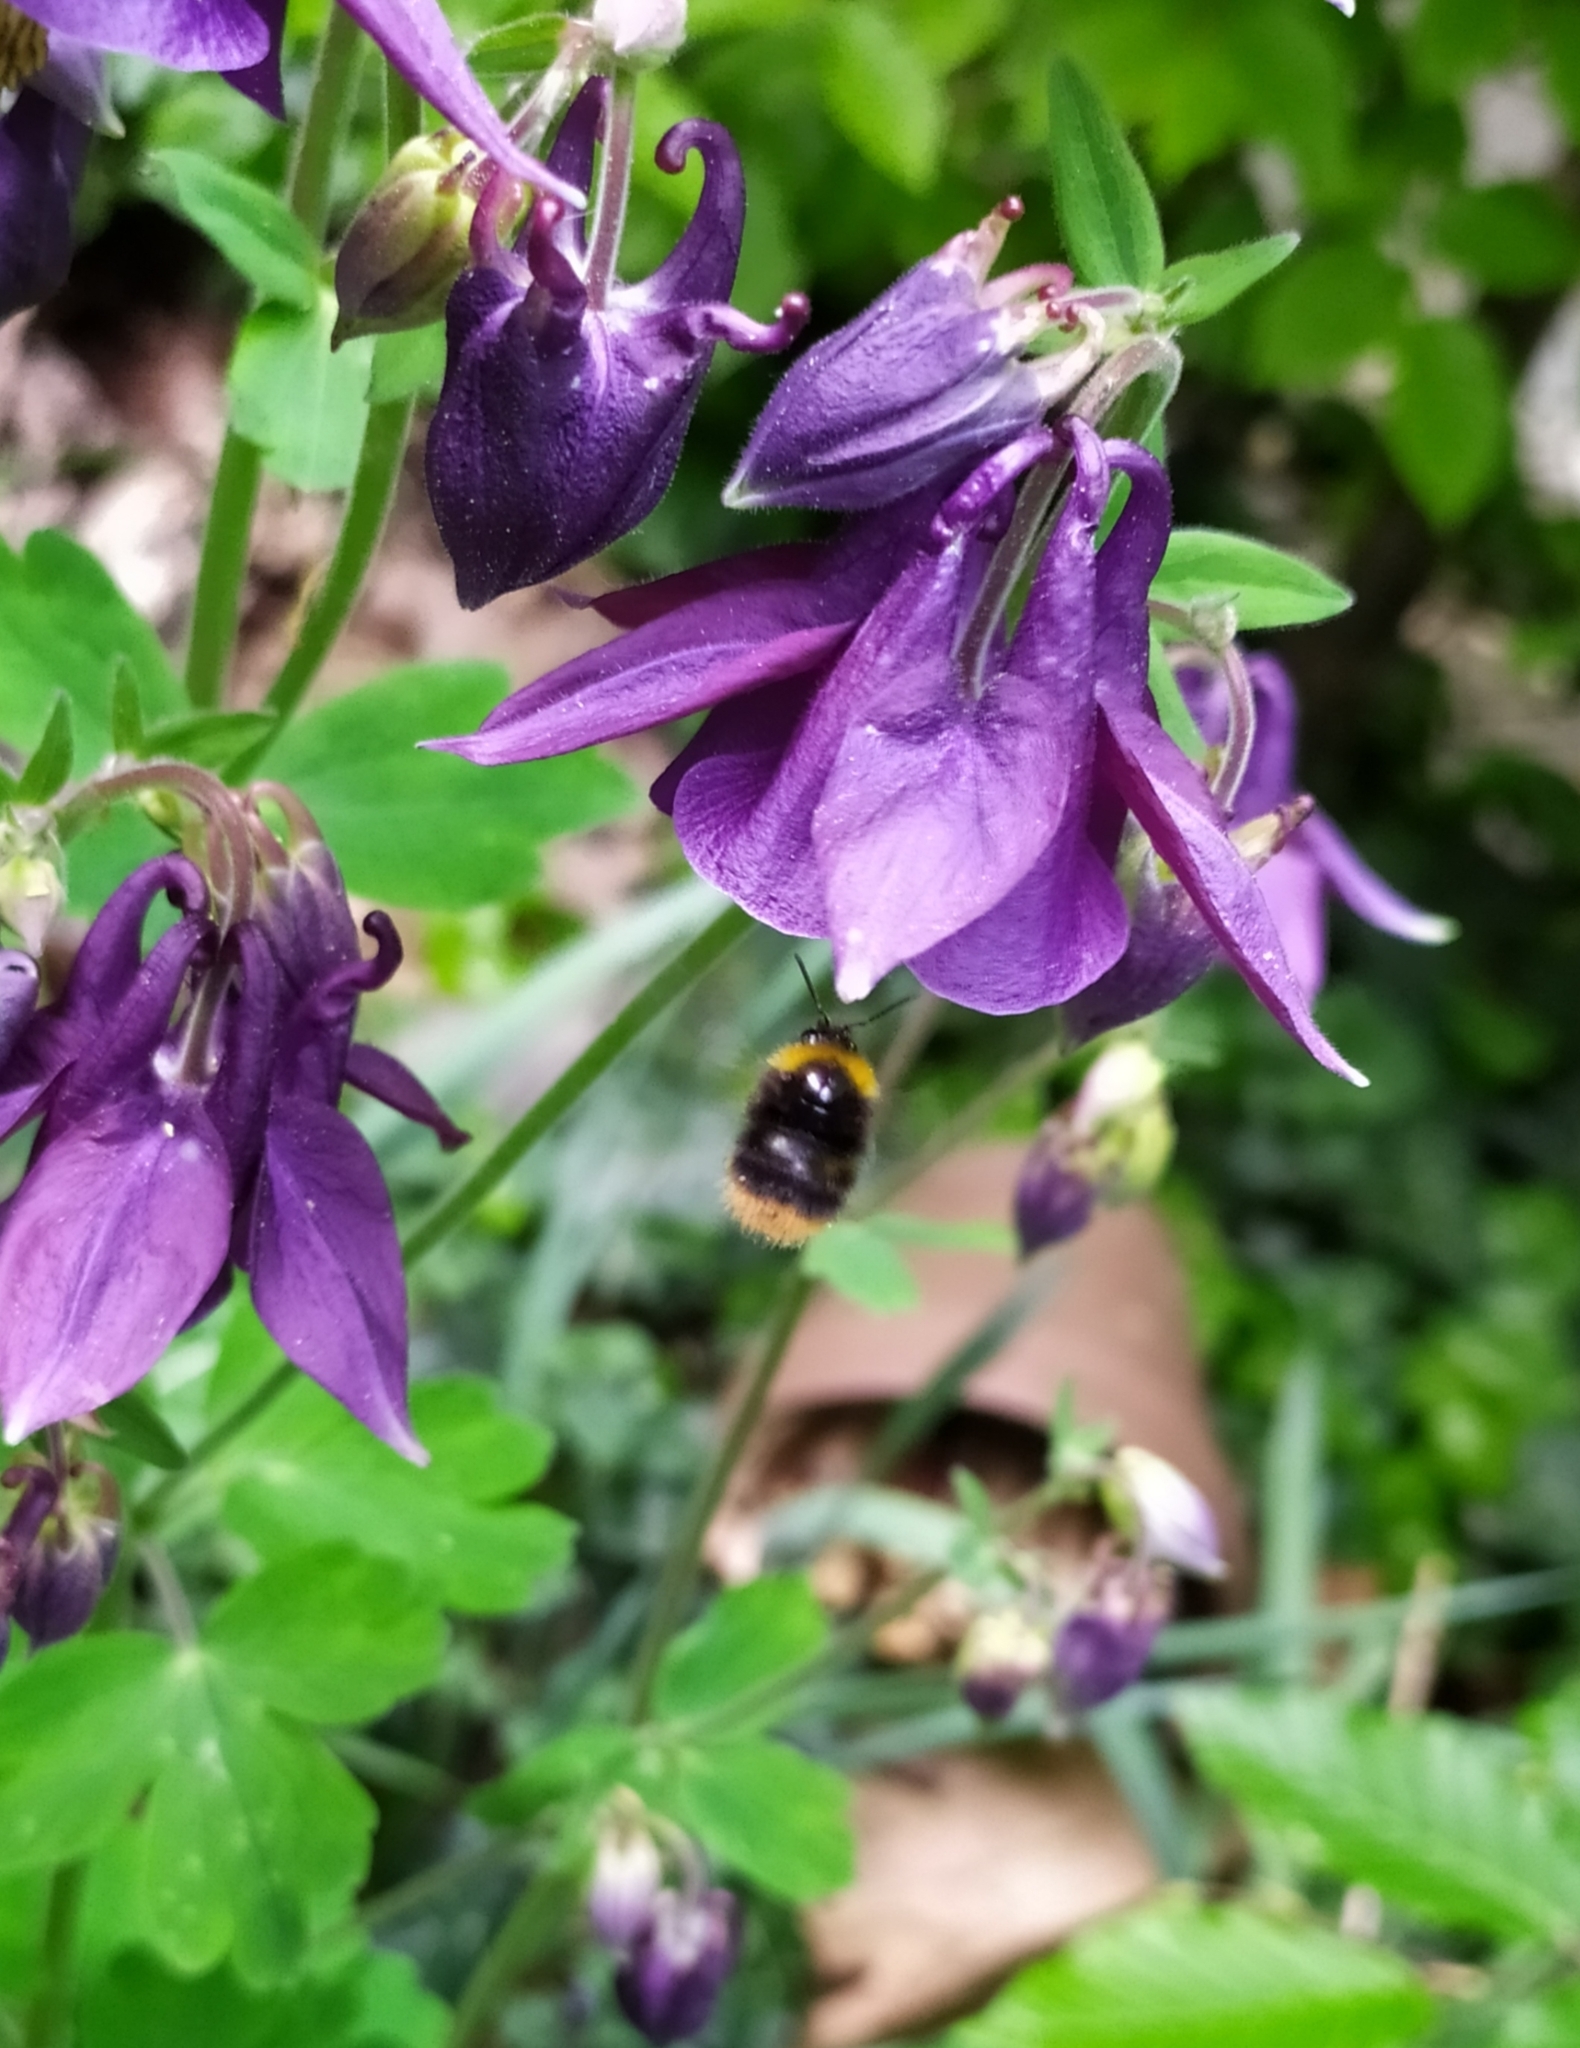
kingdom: Animalia
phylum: Arthropoda
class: Insecta
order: Hymenoptera
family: Apidae
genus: Bombus
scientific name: Bombus pratorum
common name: Early humble-bee
